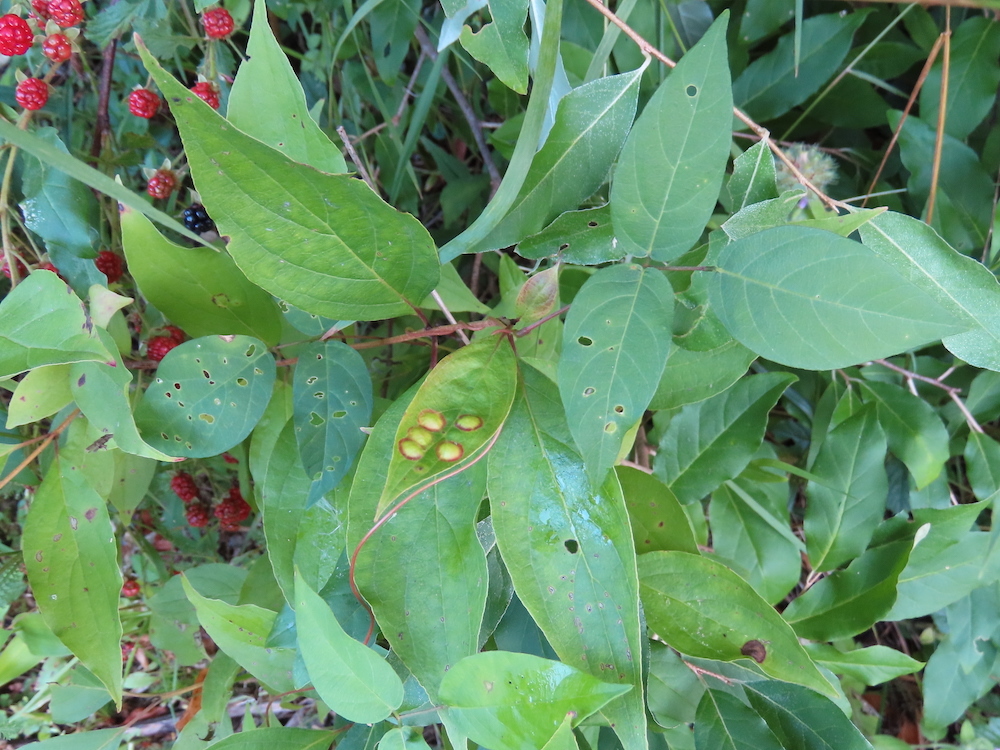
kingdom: Animalia
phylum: Arthropoda
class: Insecta
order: Diptera
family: Cecidomyiidae
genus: Parallelodiplosis
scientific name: Parallelodiplosis subtruncata
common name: Dogwood eyespot gall midge
